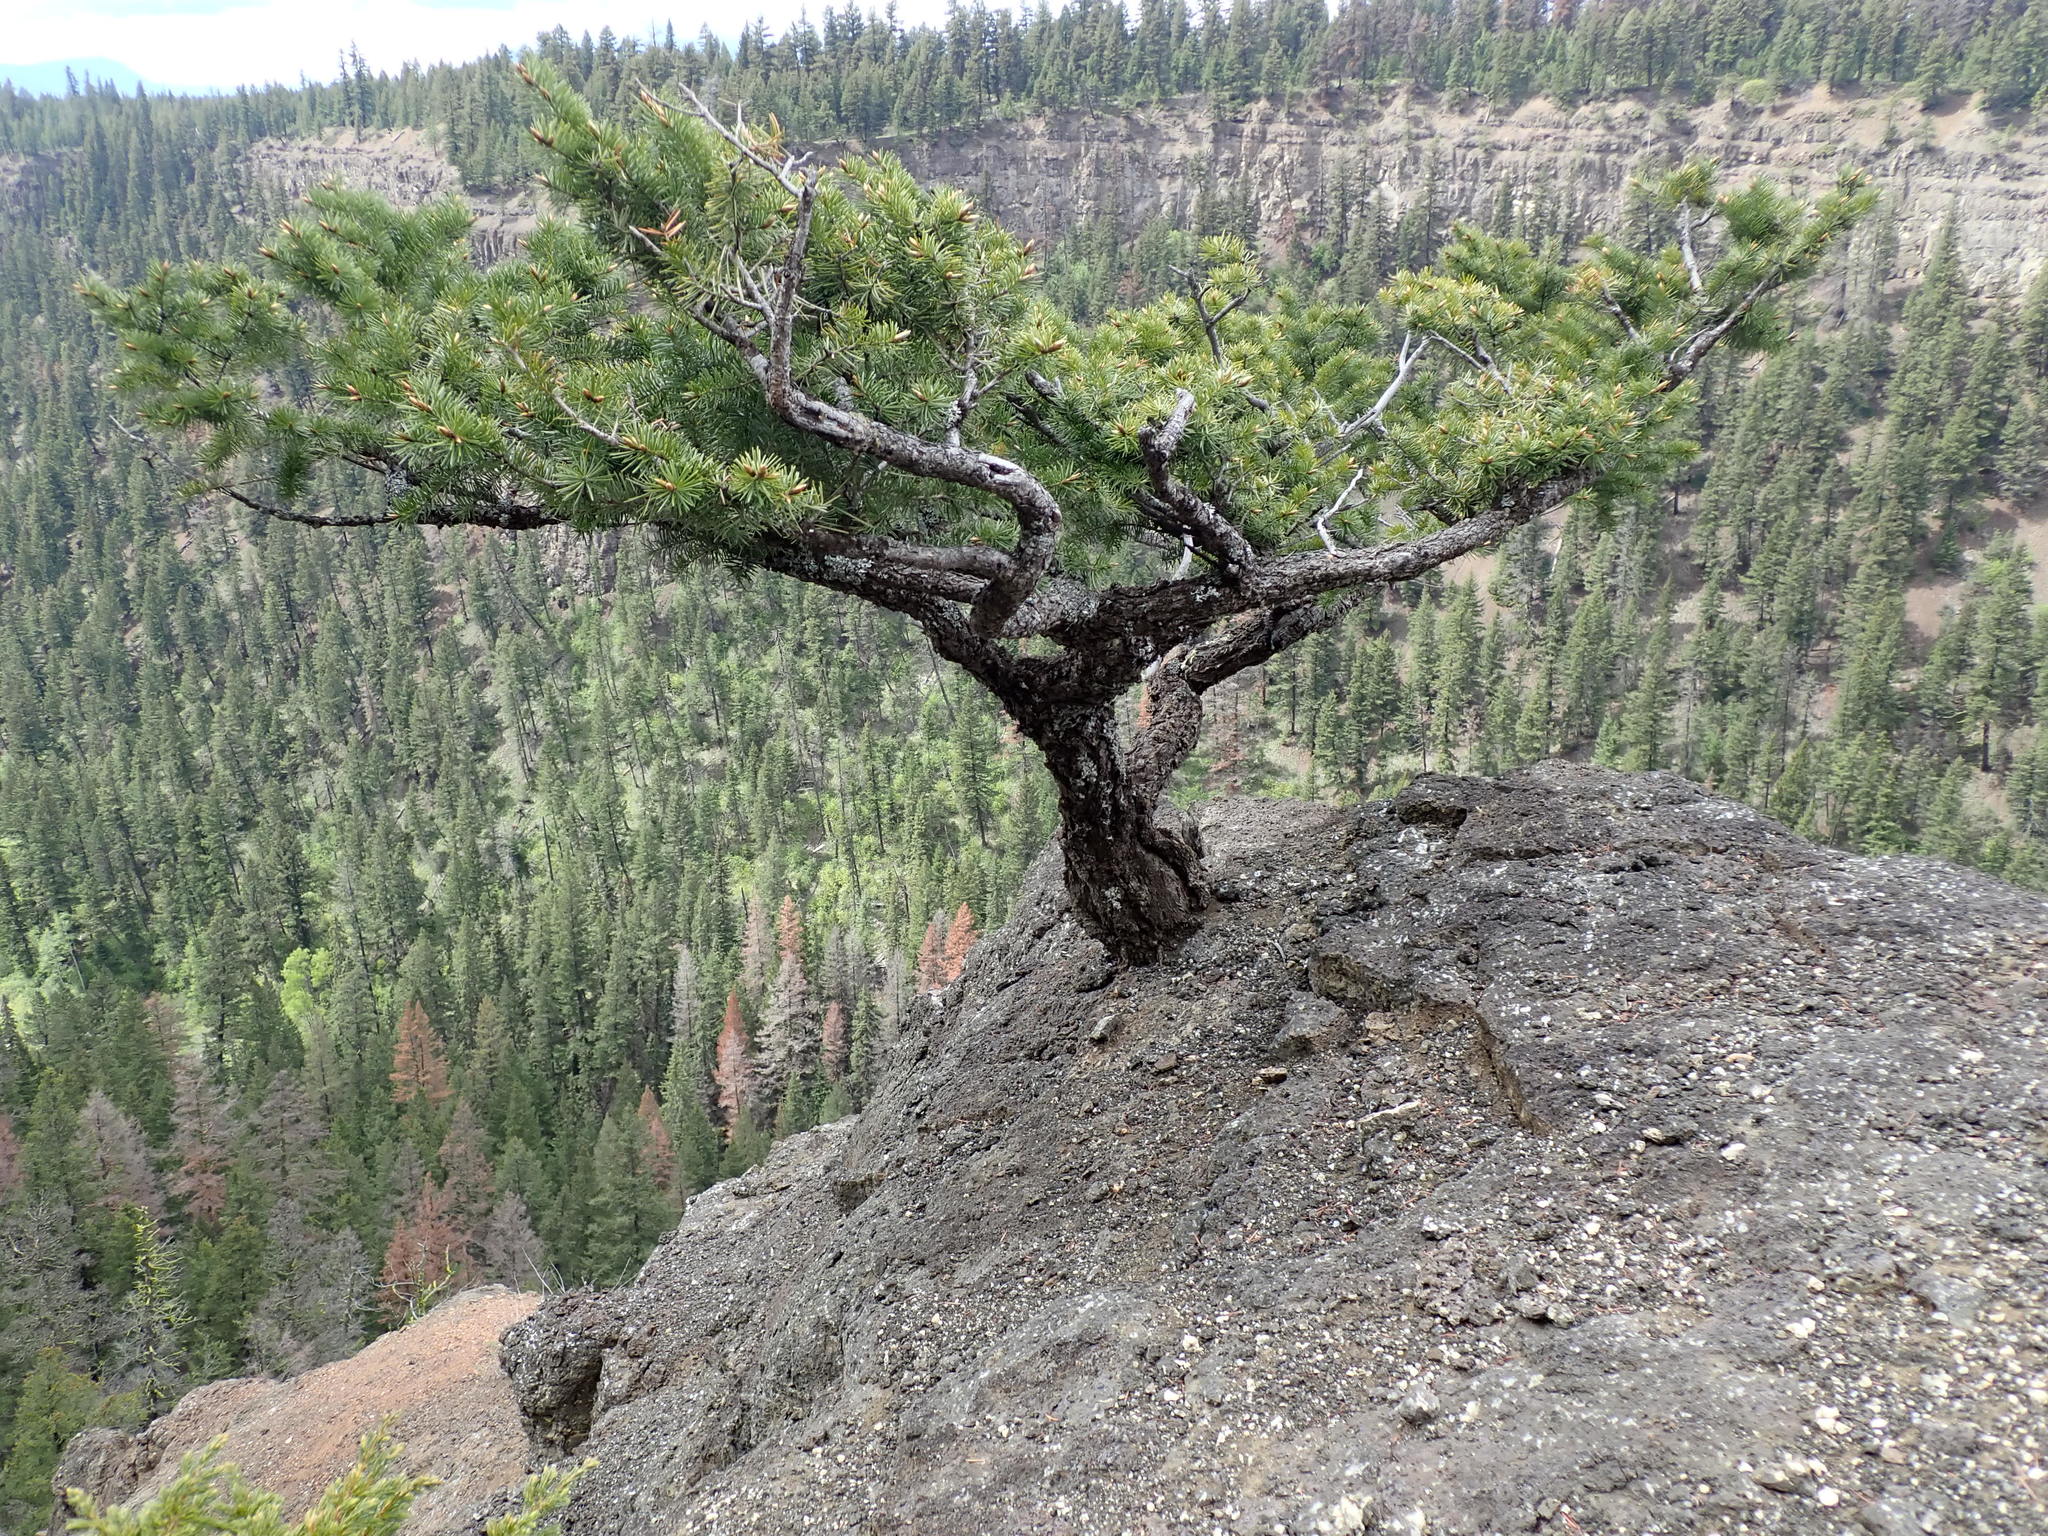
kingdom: Plantae
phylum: Tracheophyta
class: Pinopsida
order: Pinales
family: Pinaceae
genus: Pseudotsuga
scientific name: Pseudotsuga menziesii
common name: Douglas fir
